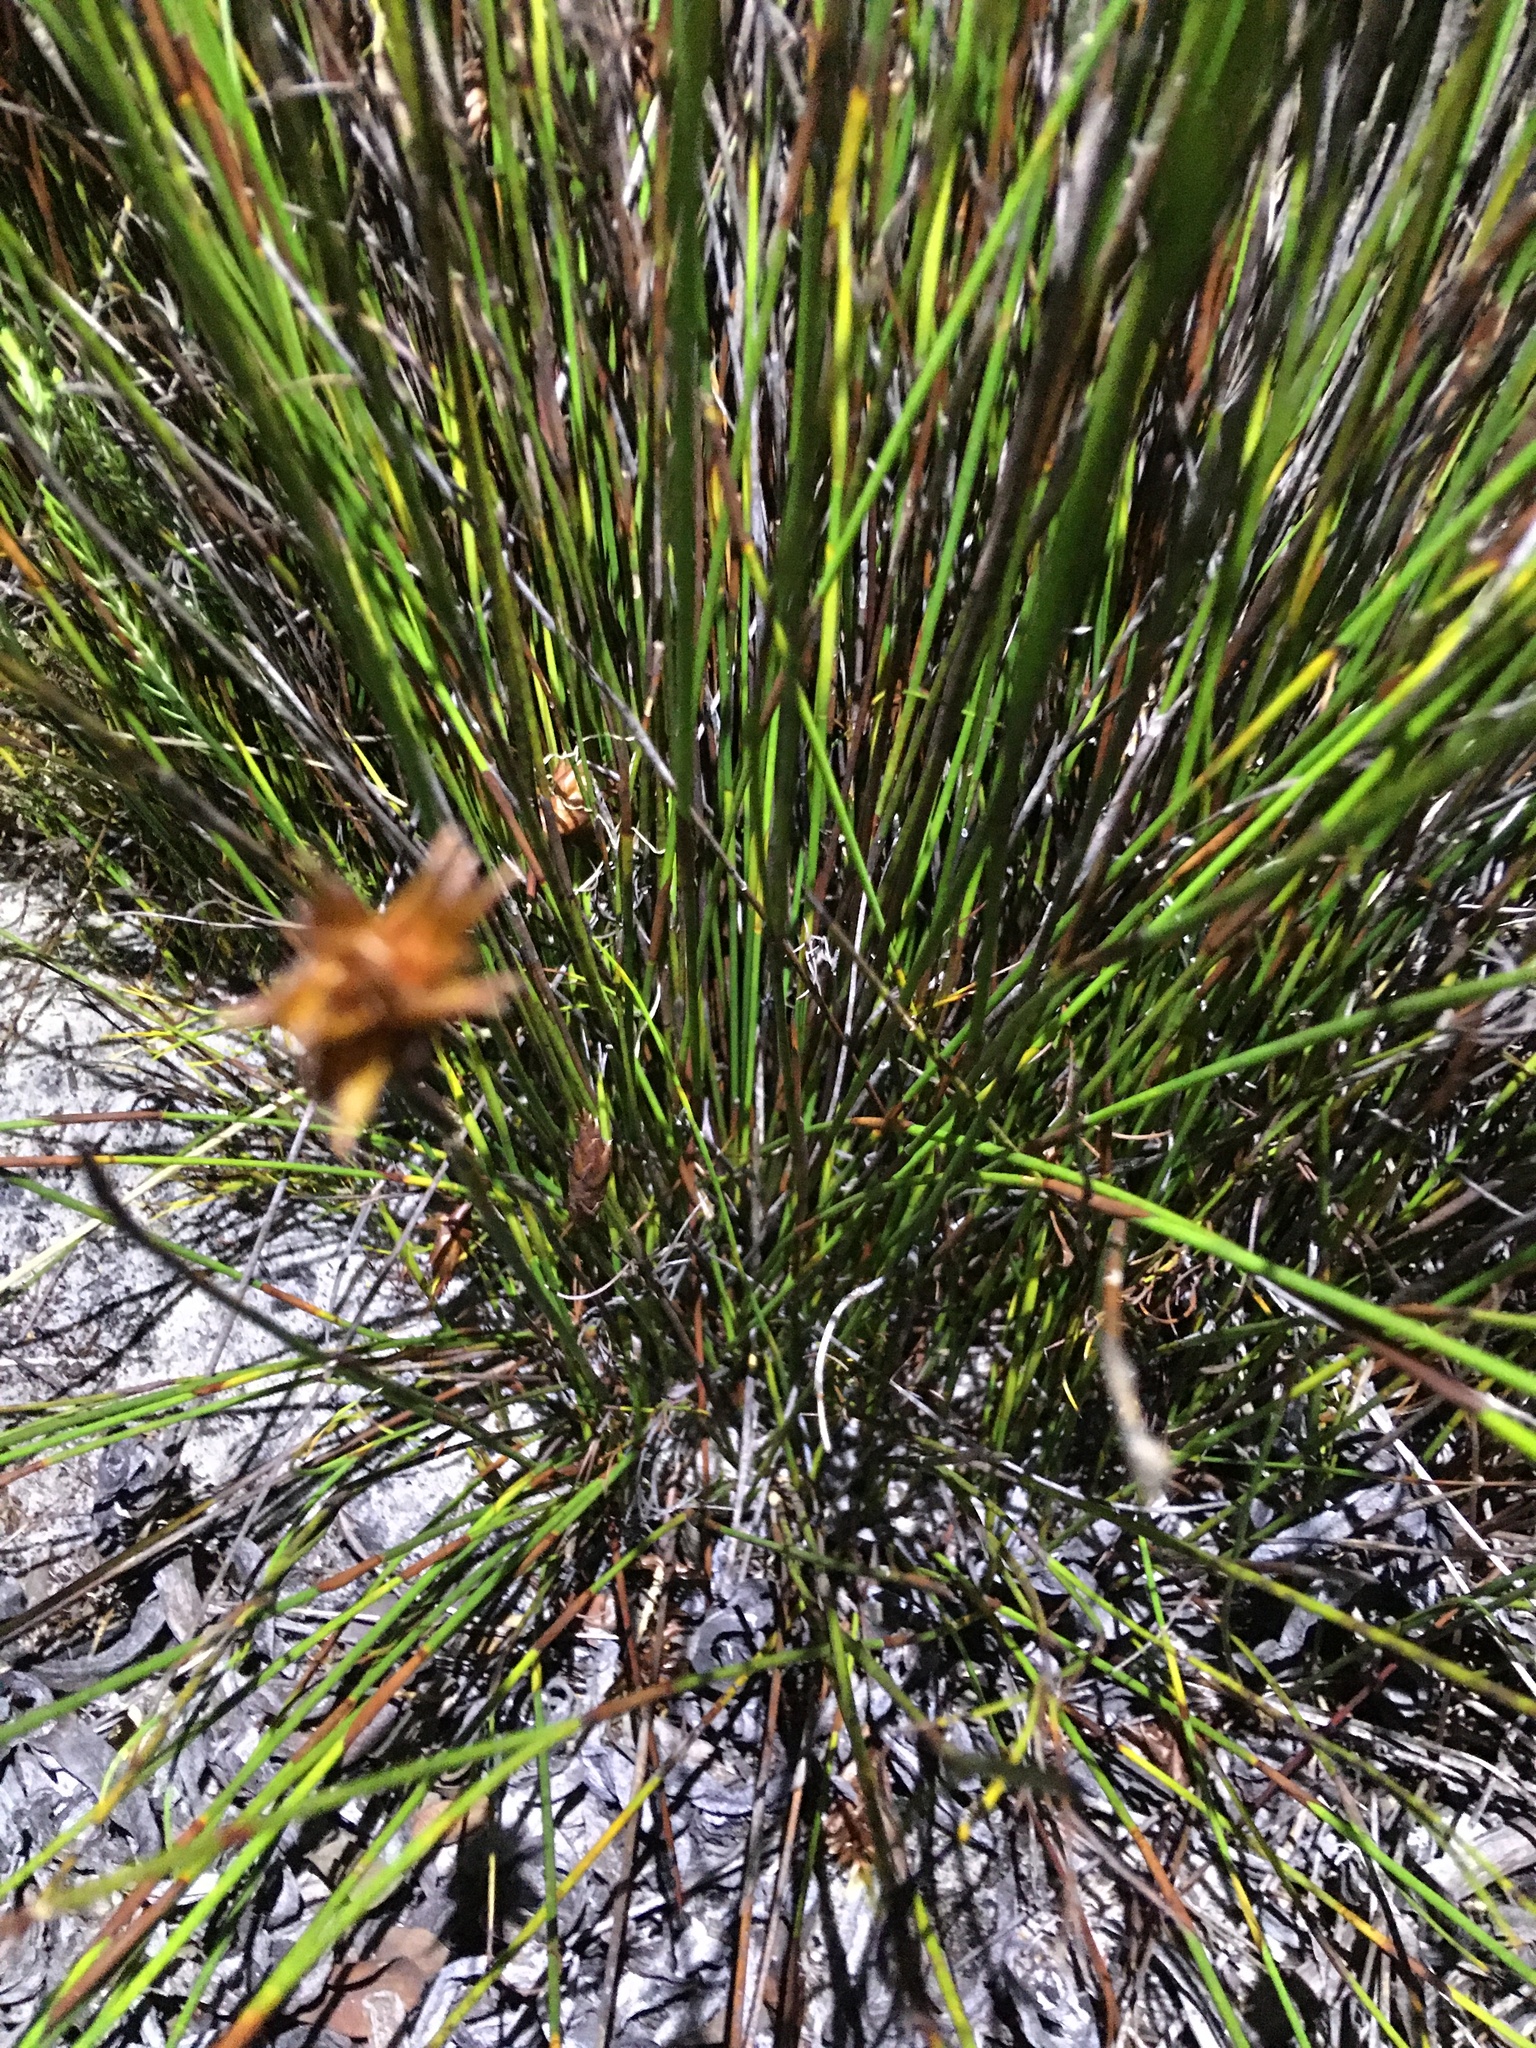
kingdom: Plantae
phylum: Tracheophyta
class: Liliopsida
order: Poales
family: Restionaceae
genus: Restio
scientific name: Restio quinquefarius
